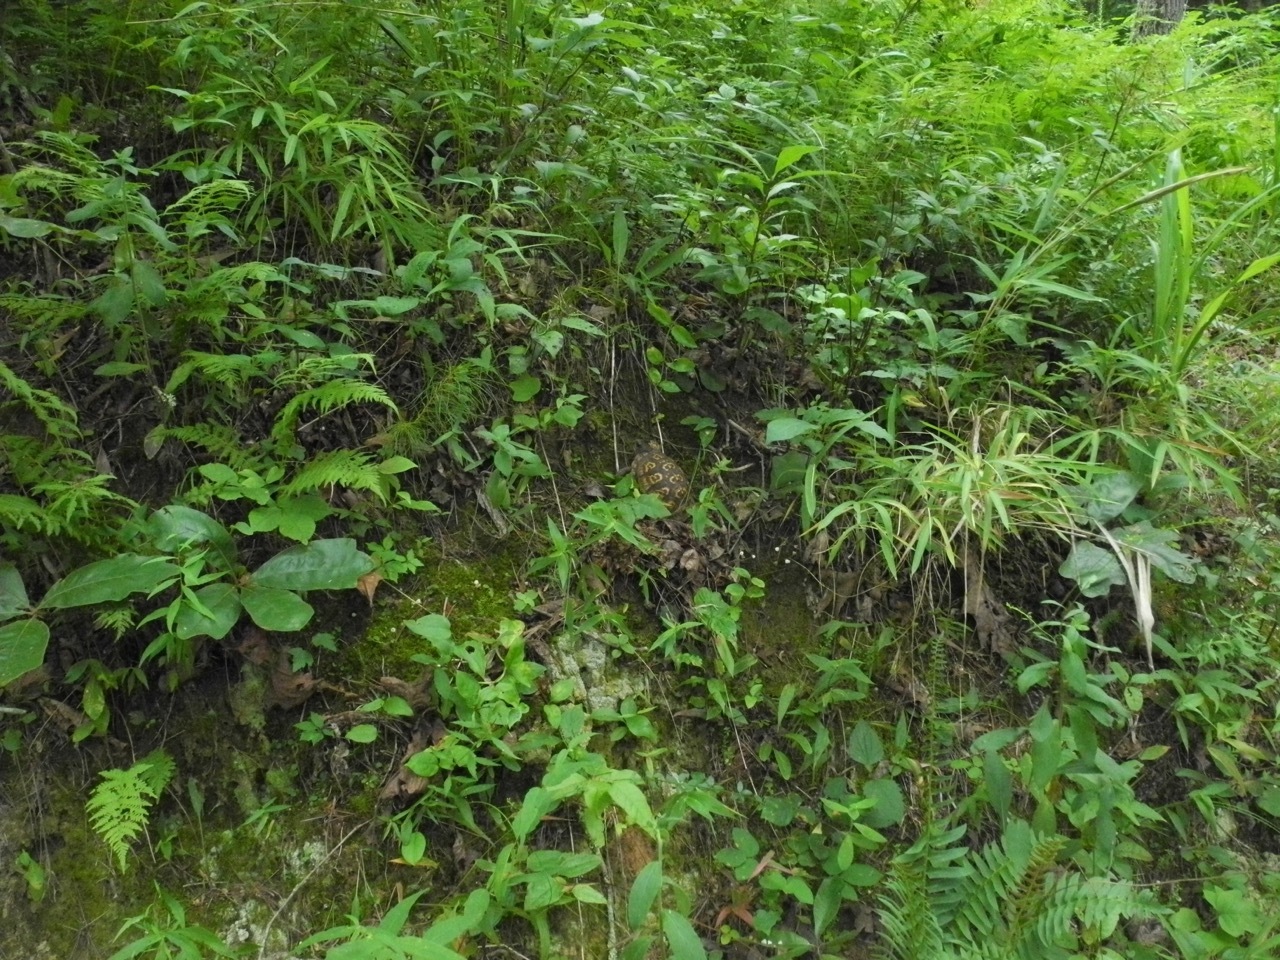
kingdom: Animalia
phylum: Chordata
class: Testudines
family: Emydidae
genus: Terrapene
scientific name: Terrapene carolina
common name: Common box turtle
